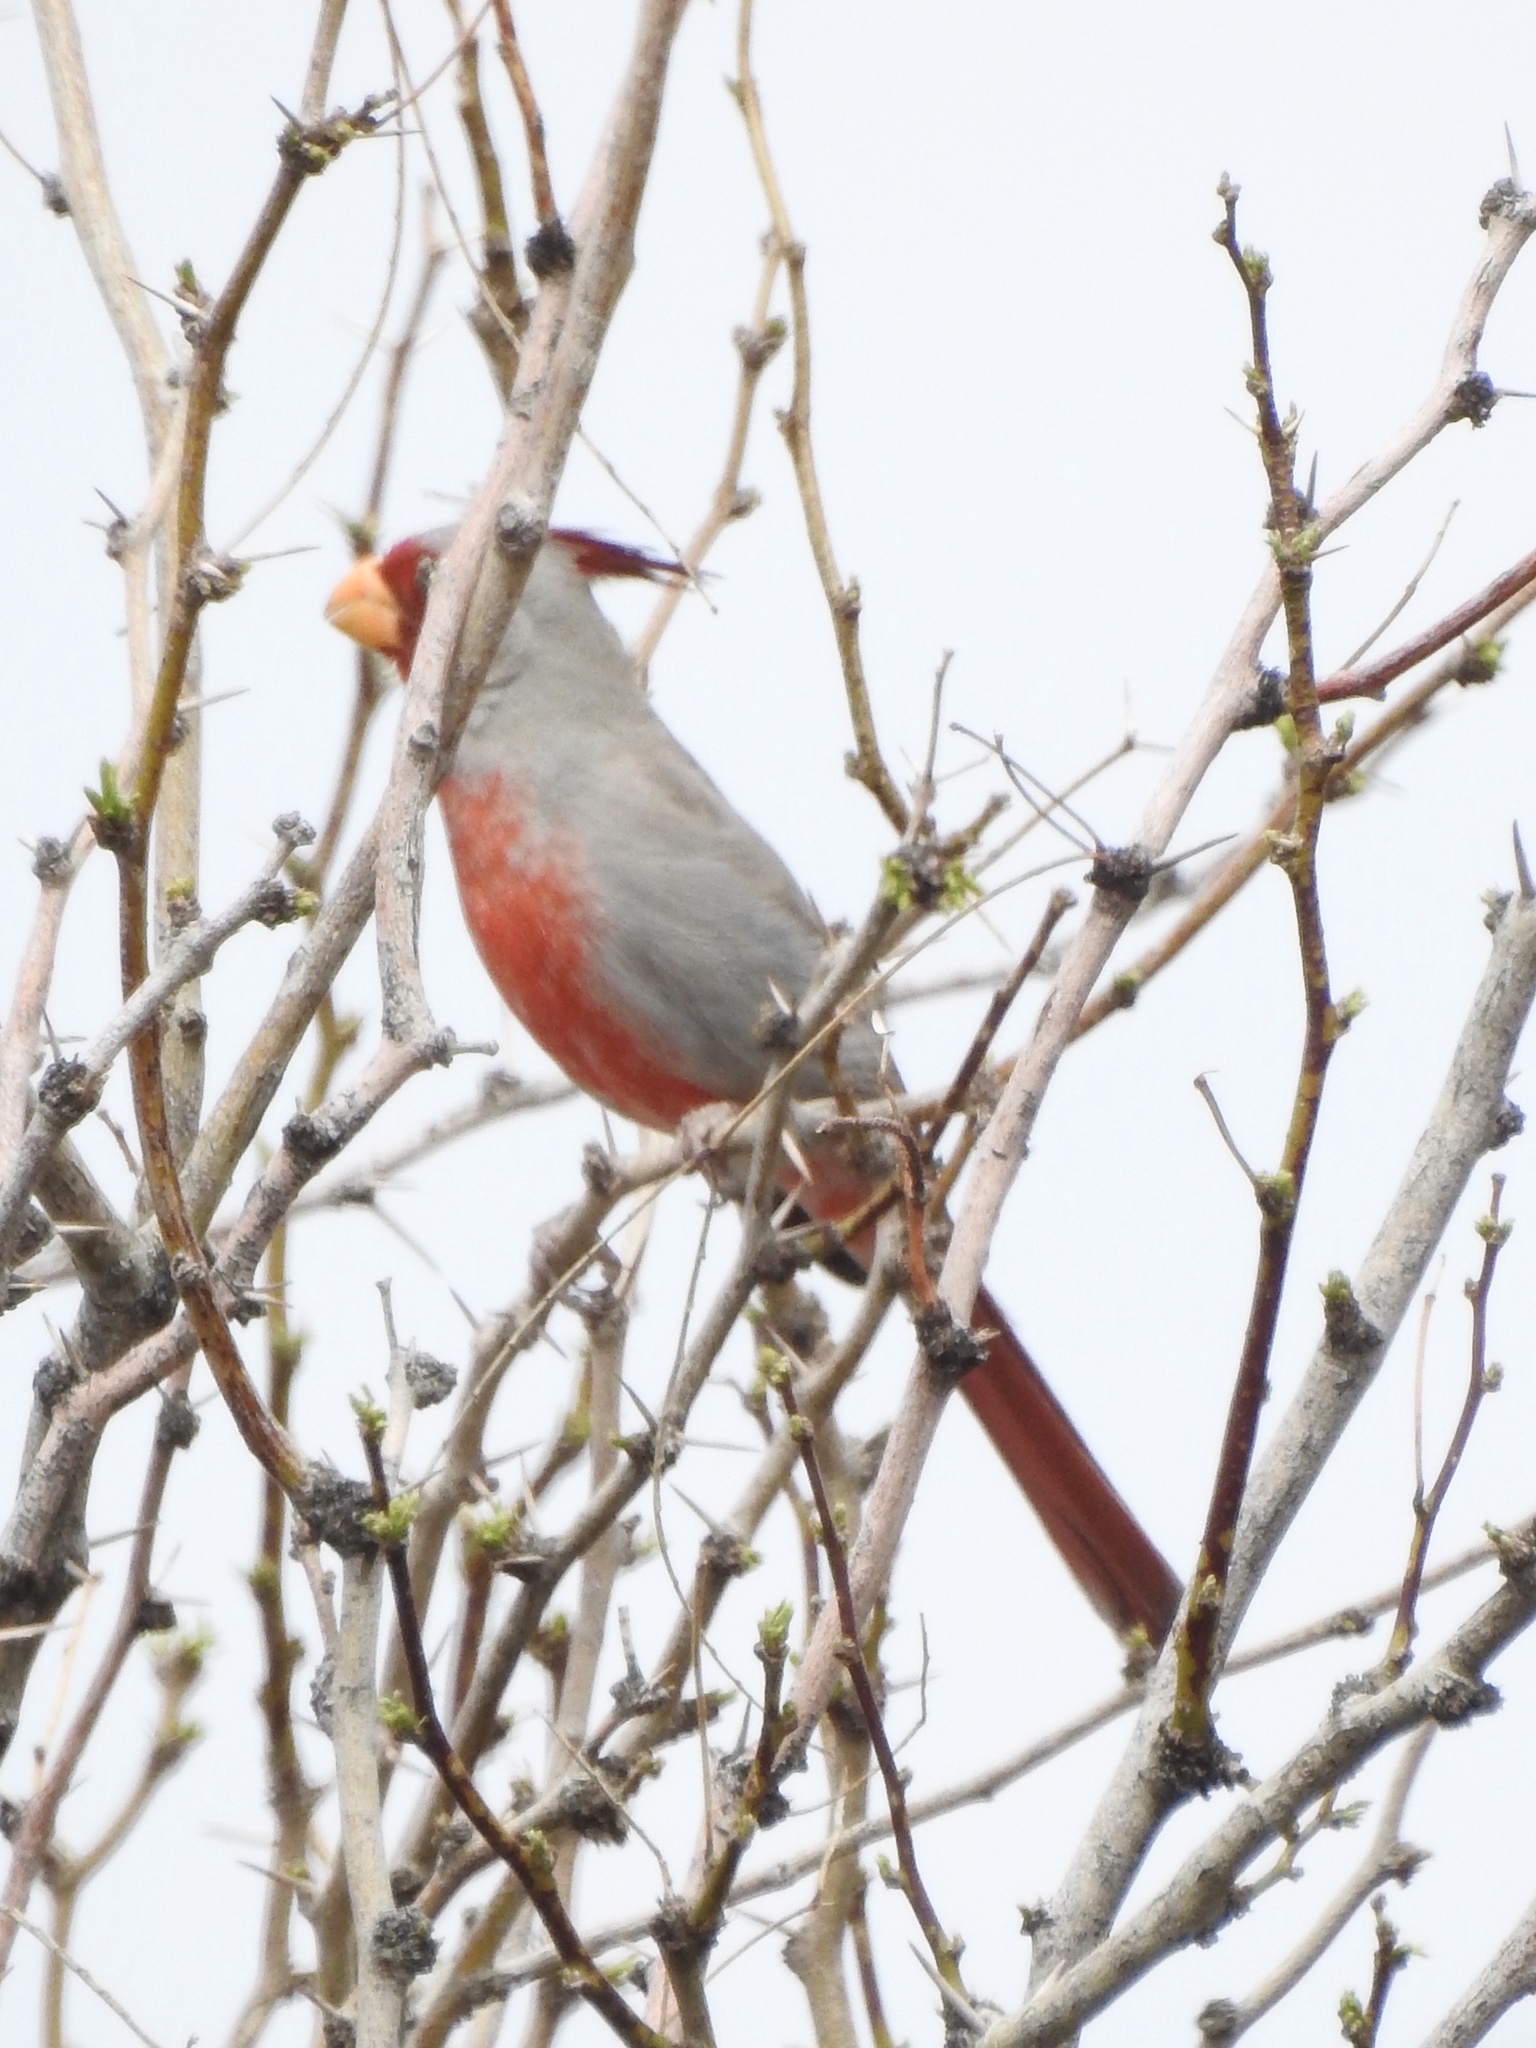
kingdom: Animalia
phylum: Chordata
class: Aves
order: Passeriformes
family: Cardinalidae
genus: Cardinalis
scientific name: Cardinalis sinuatus
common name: Pyrrhuloxia
